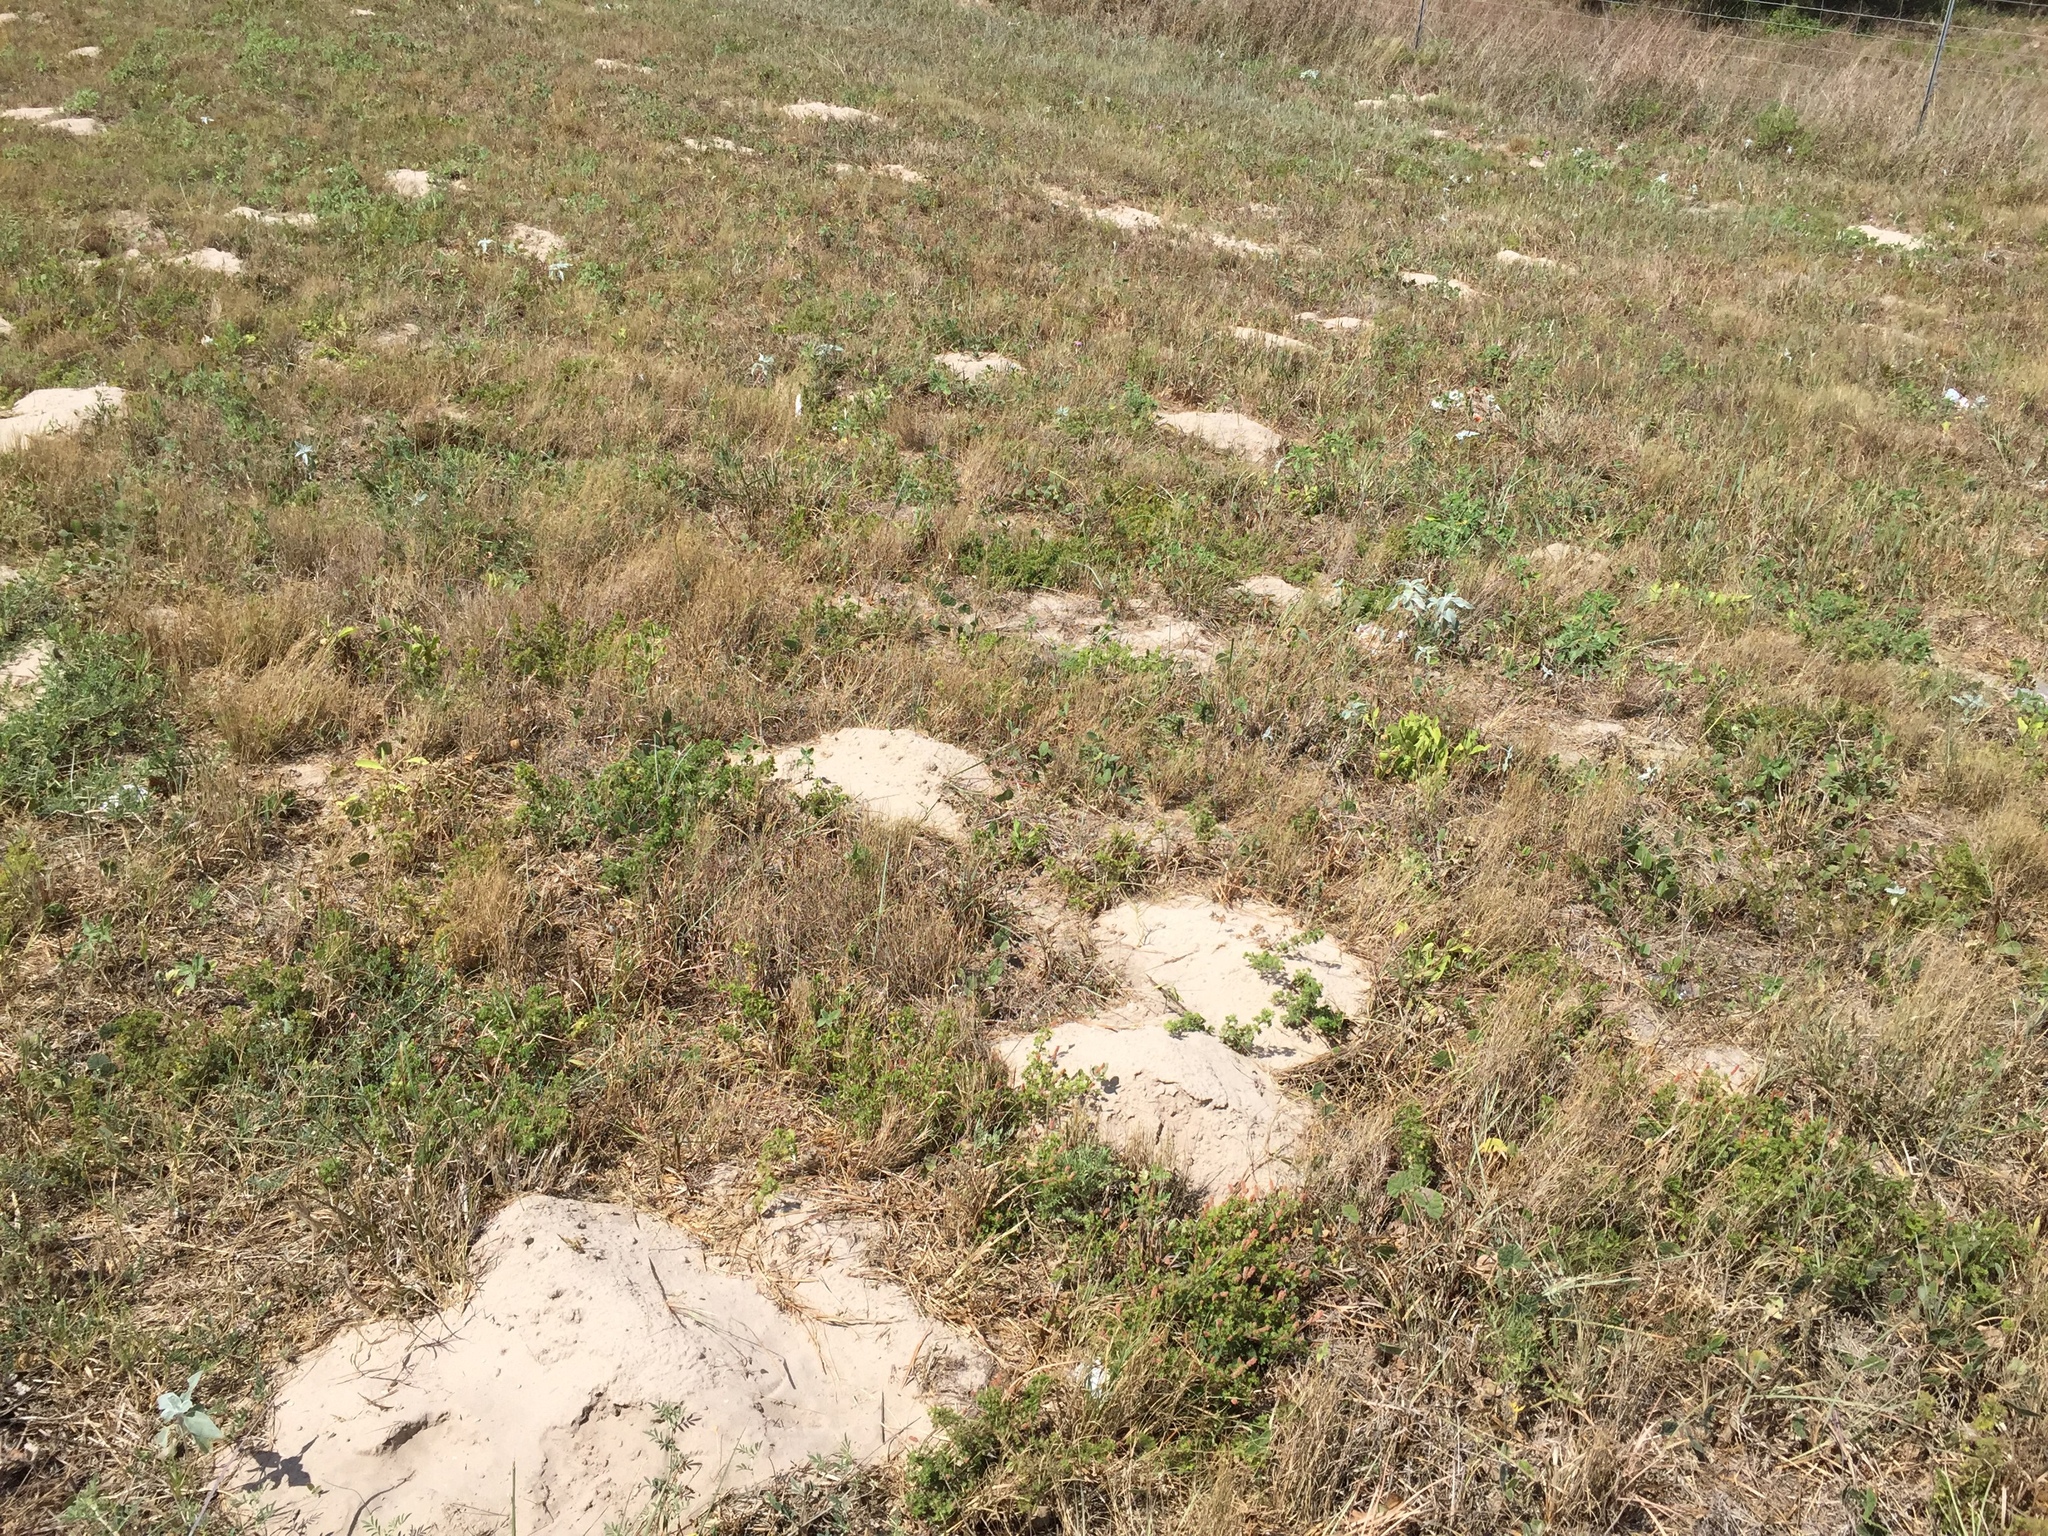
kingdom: Animalia
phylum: Chordata
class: Mammalia
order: Rodentia
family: Geomyidae
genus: Geomys
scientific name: Geomys personatus
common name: Texas pocket gopher
